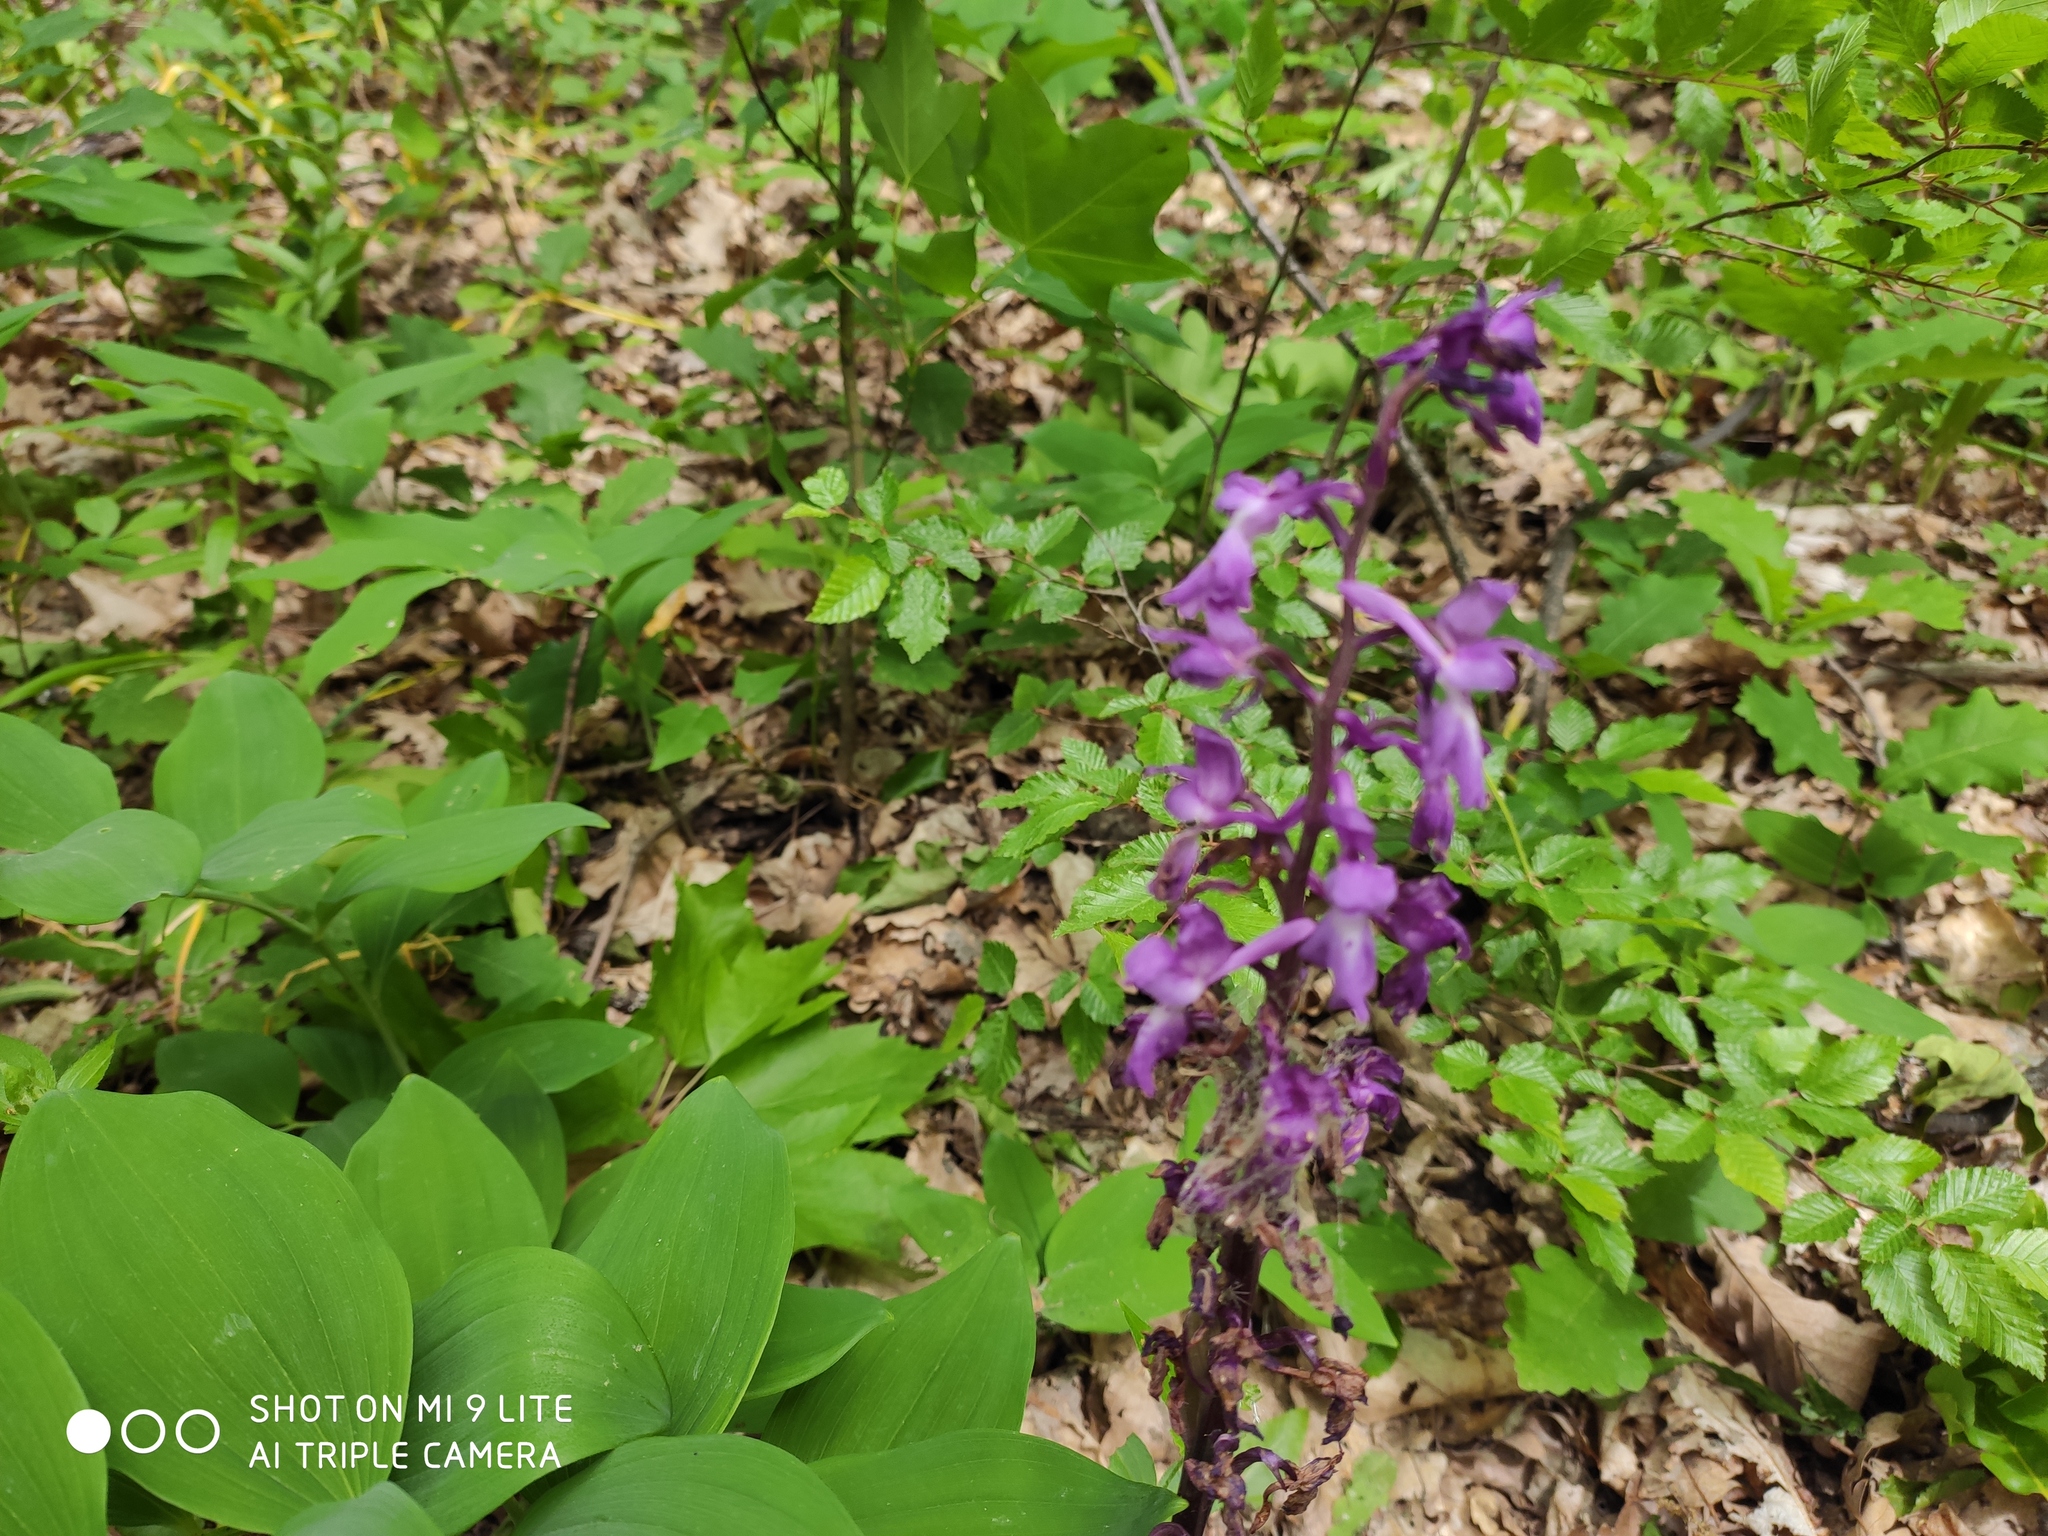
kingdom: Plantae
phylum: Tracheophyta
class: Liliopsida
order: Asparagales
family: Orchidaceae
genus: Orchis
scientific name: Orchis mascula
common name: Early-purple orchid
